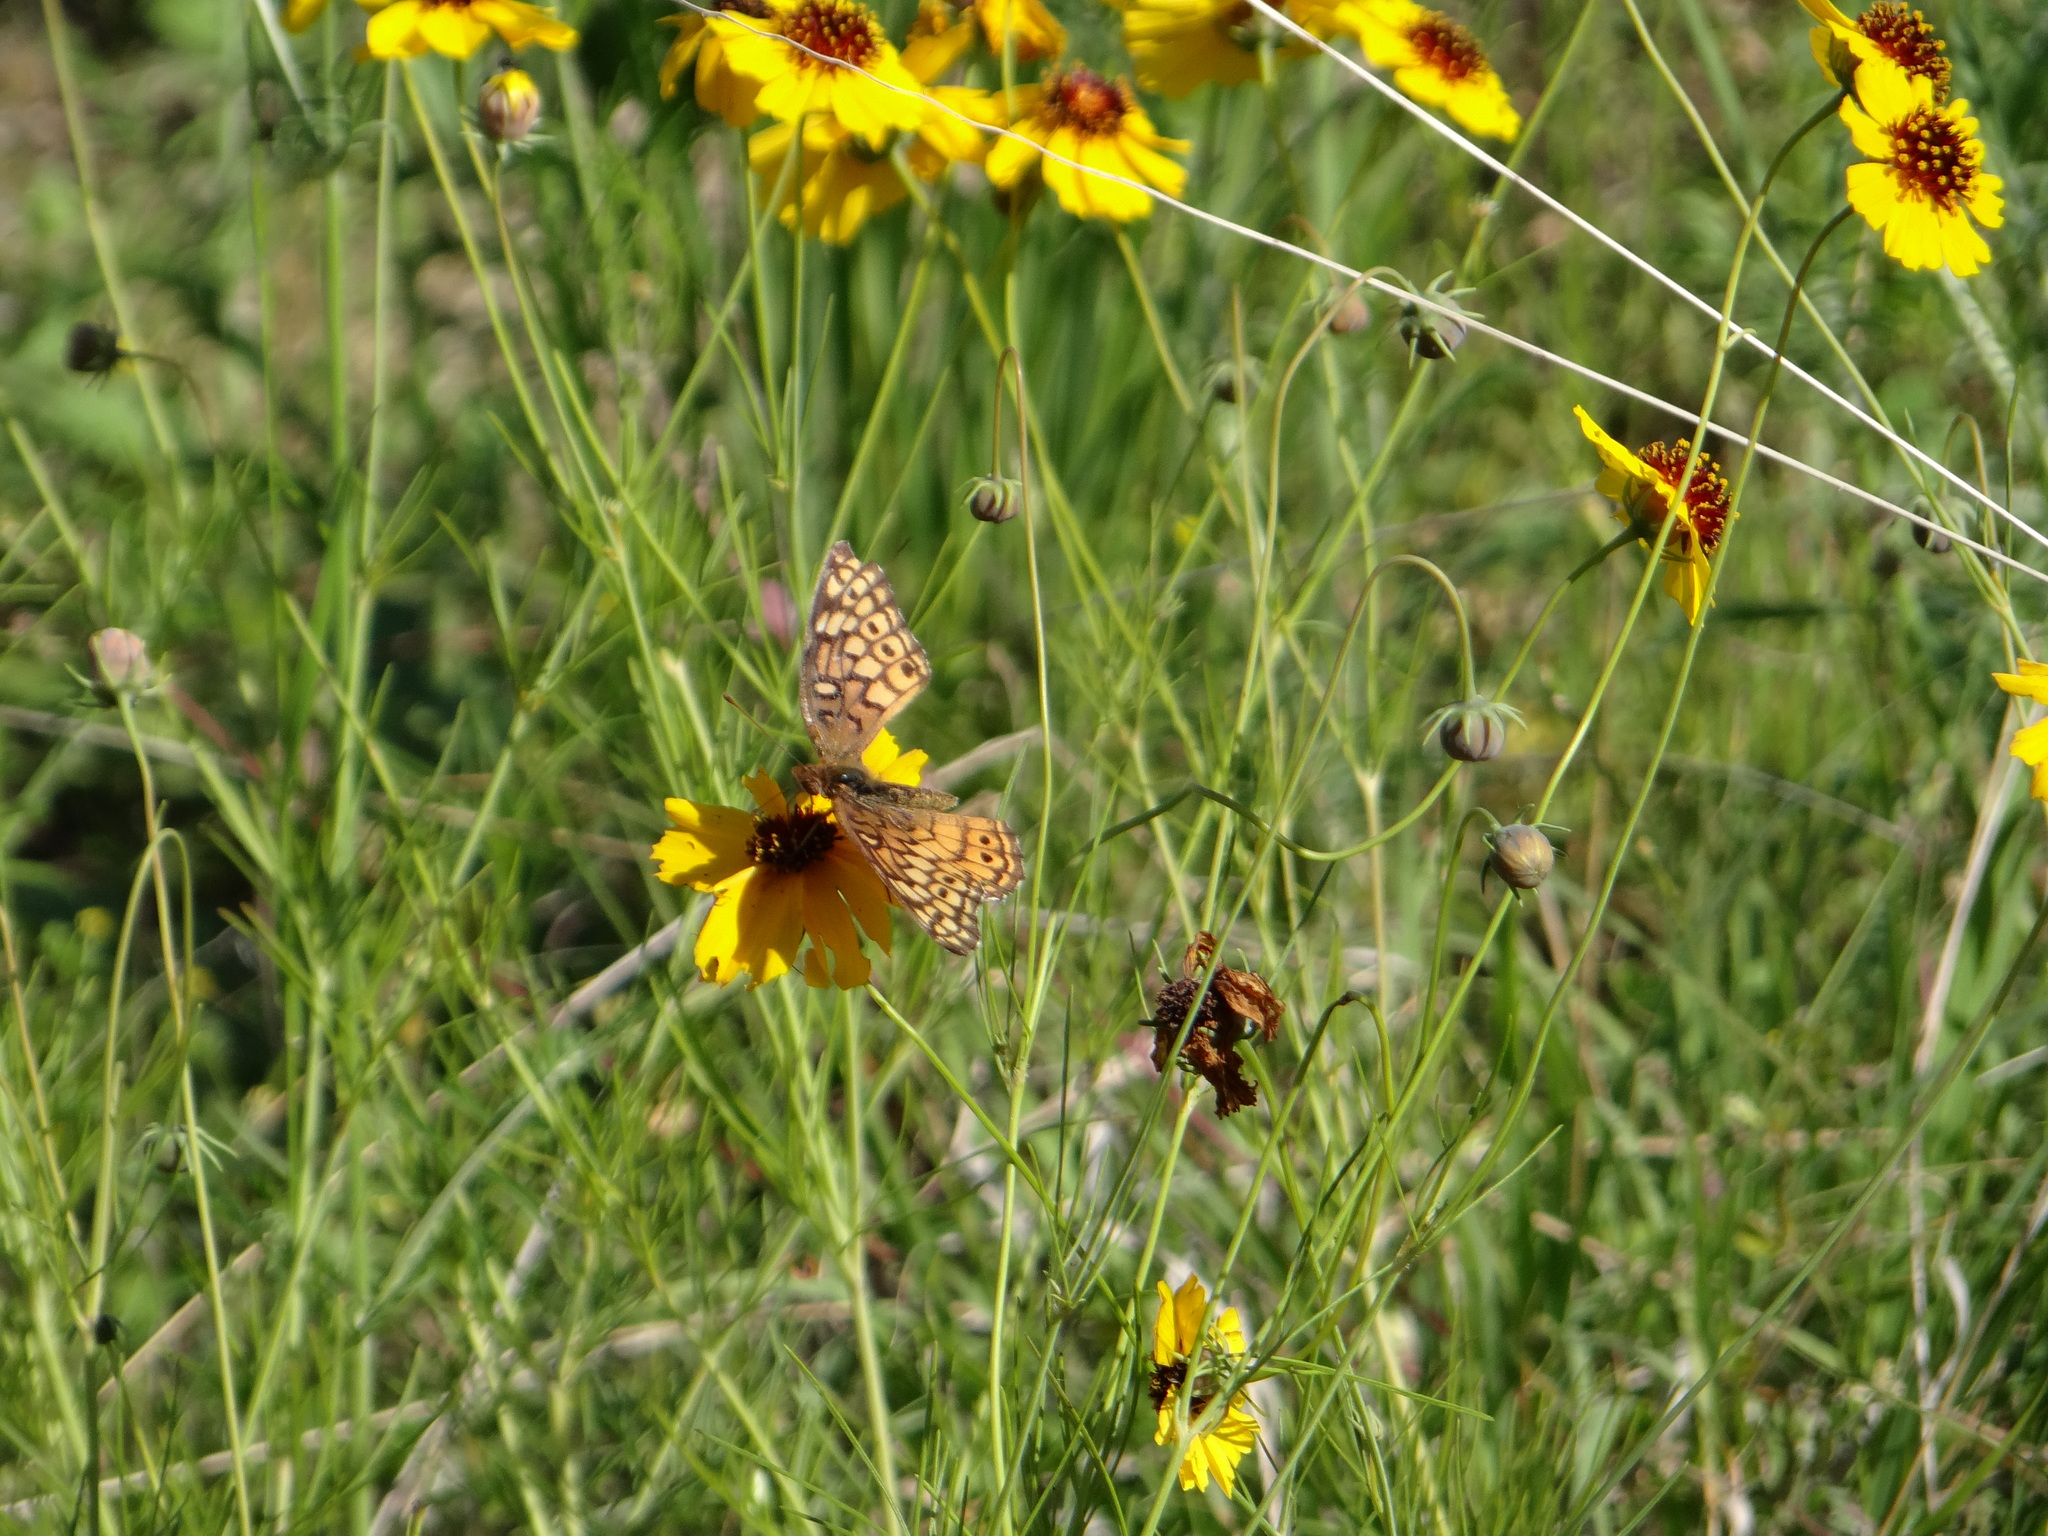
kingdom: Animalia
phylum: Arthropoda
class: Insecta
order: Lepidoptera
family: Nymphalidae
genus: Euptoieta
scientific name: Euptoieta claudia
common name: Variegated fritillary
